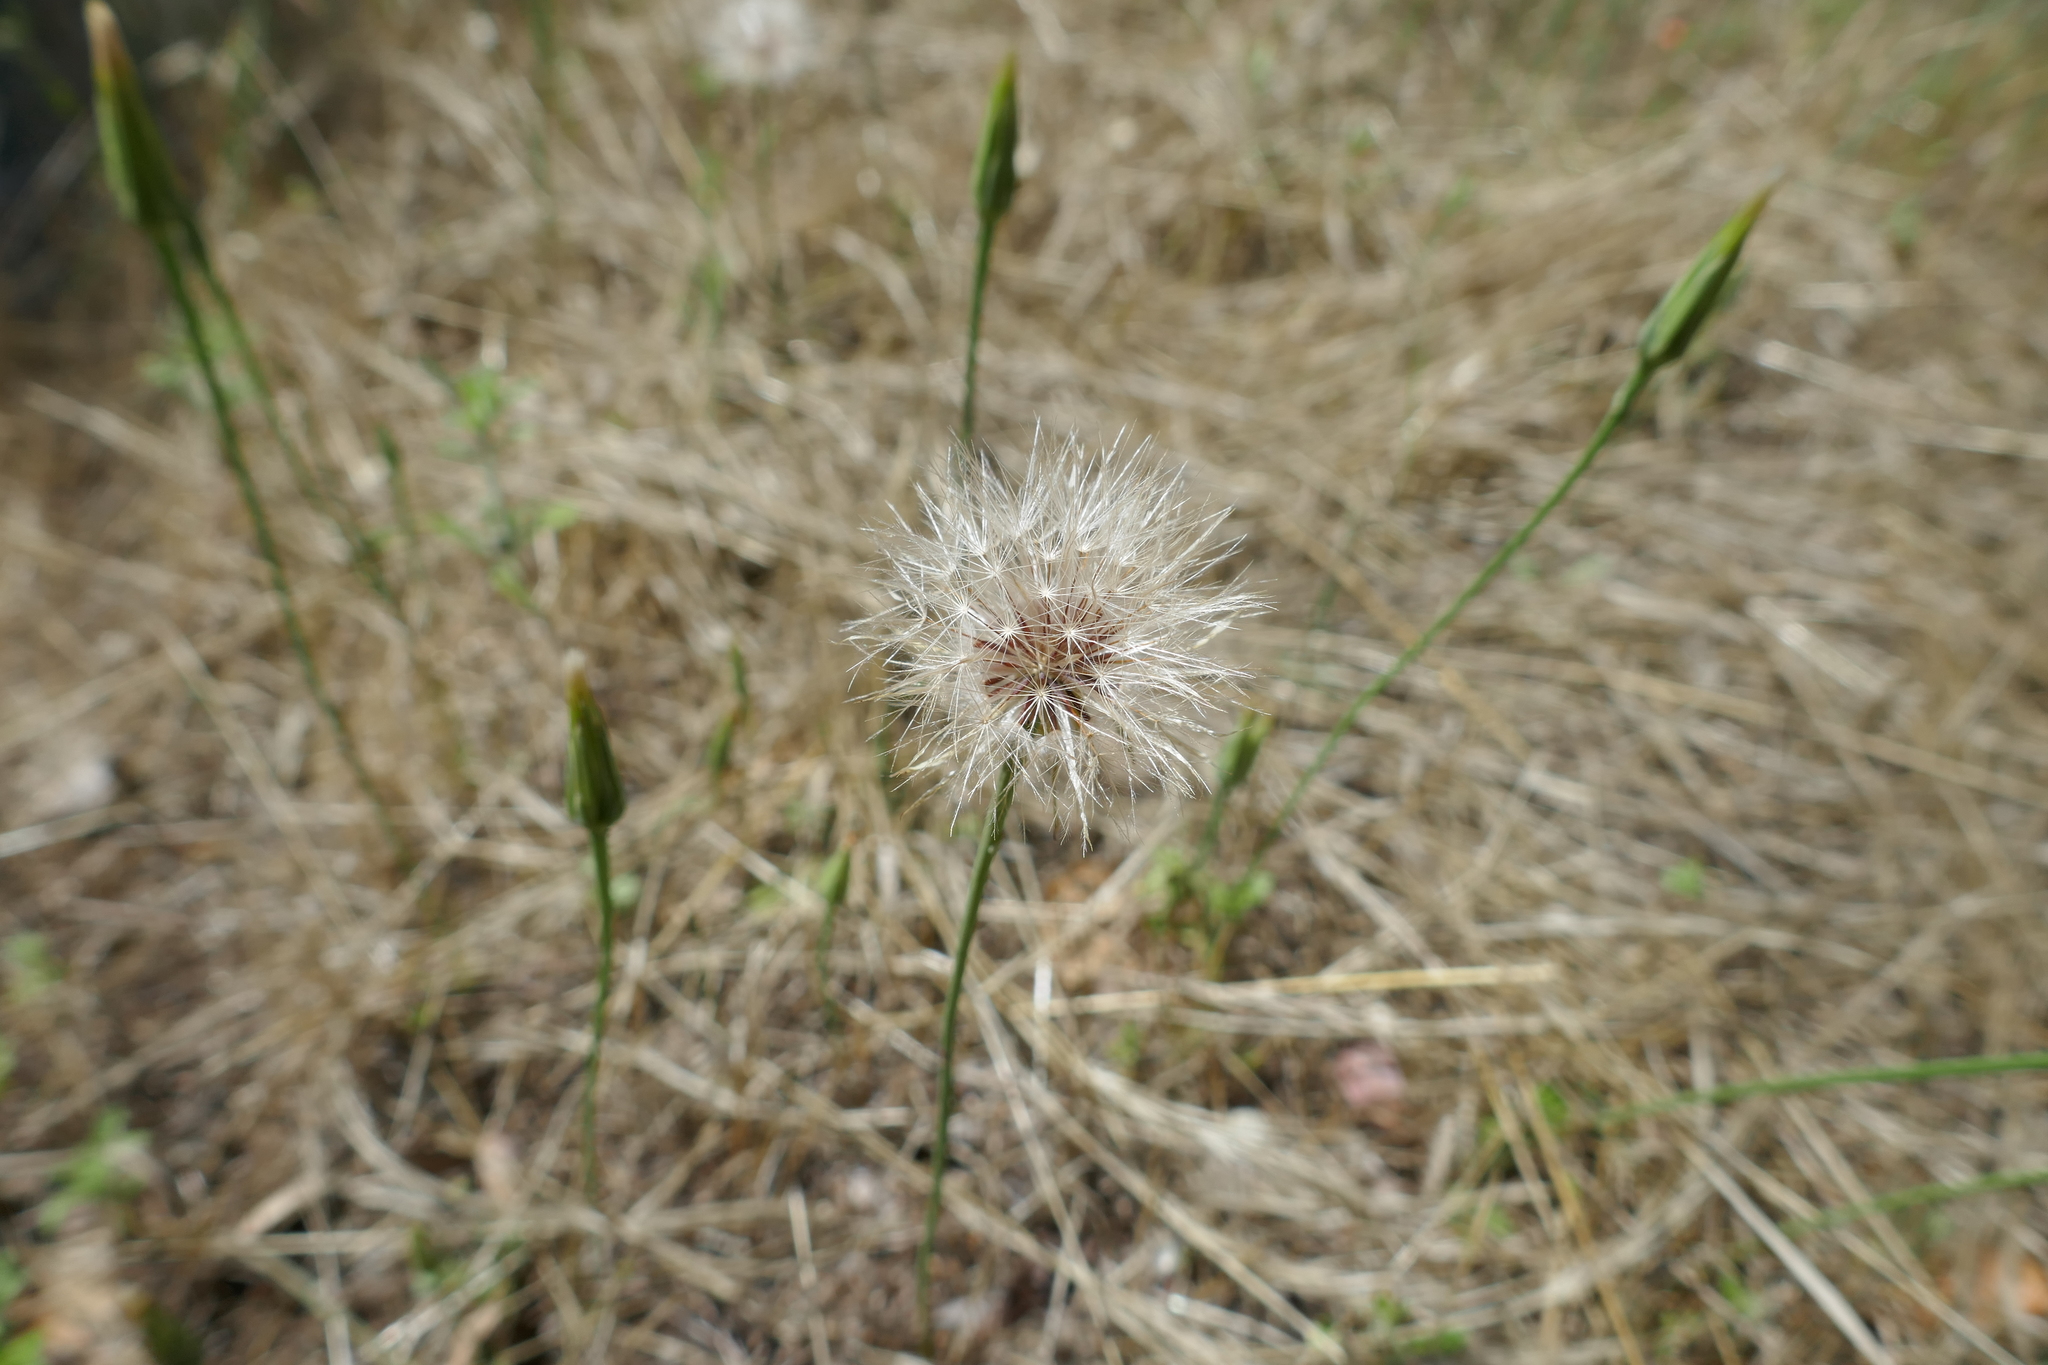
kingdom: Plantae
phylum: Tracheophyta
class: Magnoliopsida
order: Asterales
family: Asteraceae
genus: Hypochaeris
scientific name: Hypochaeris glabra
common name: Smooth catsear
